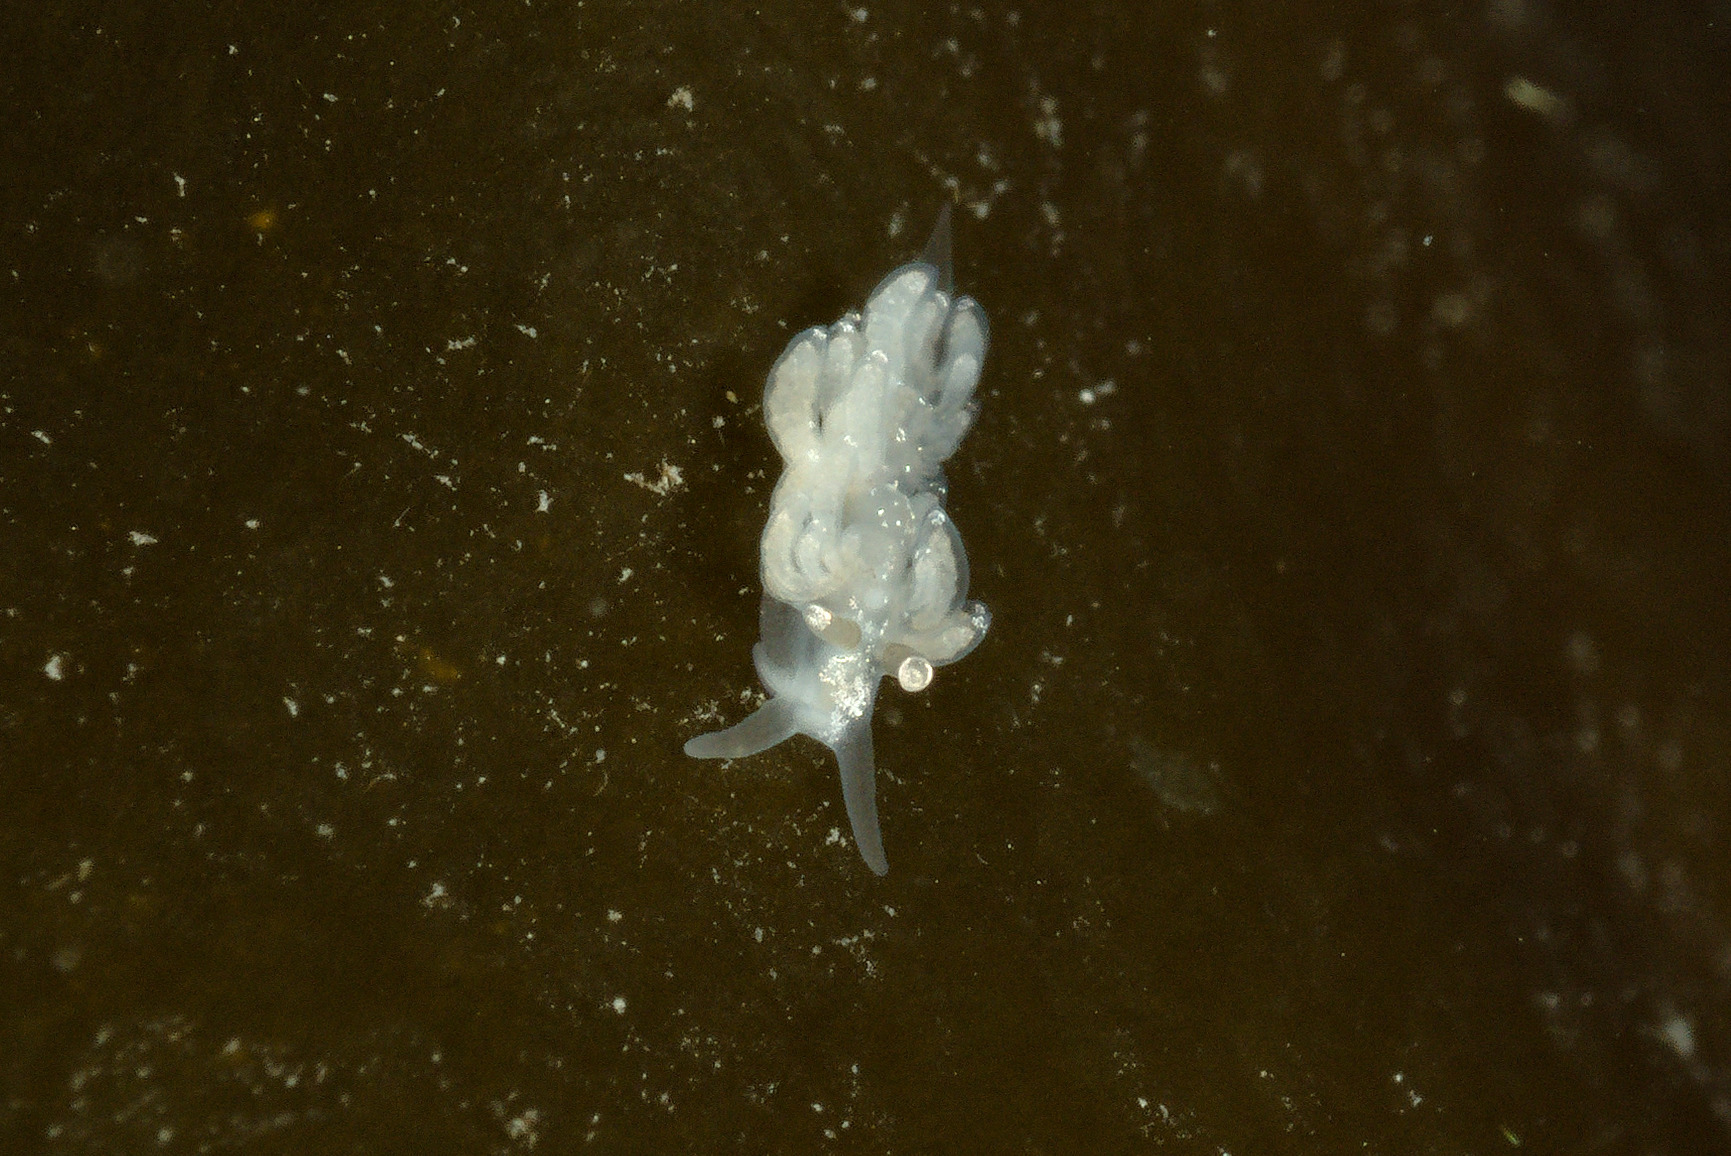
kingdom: Animalia
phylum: Mollusca
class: Gastropoda
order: Nudibranchia
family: Facelinidae
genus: Favorinus
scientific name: Favorinus branchialis
